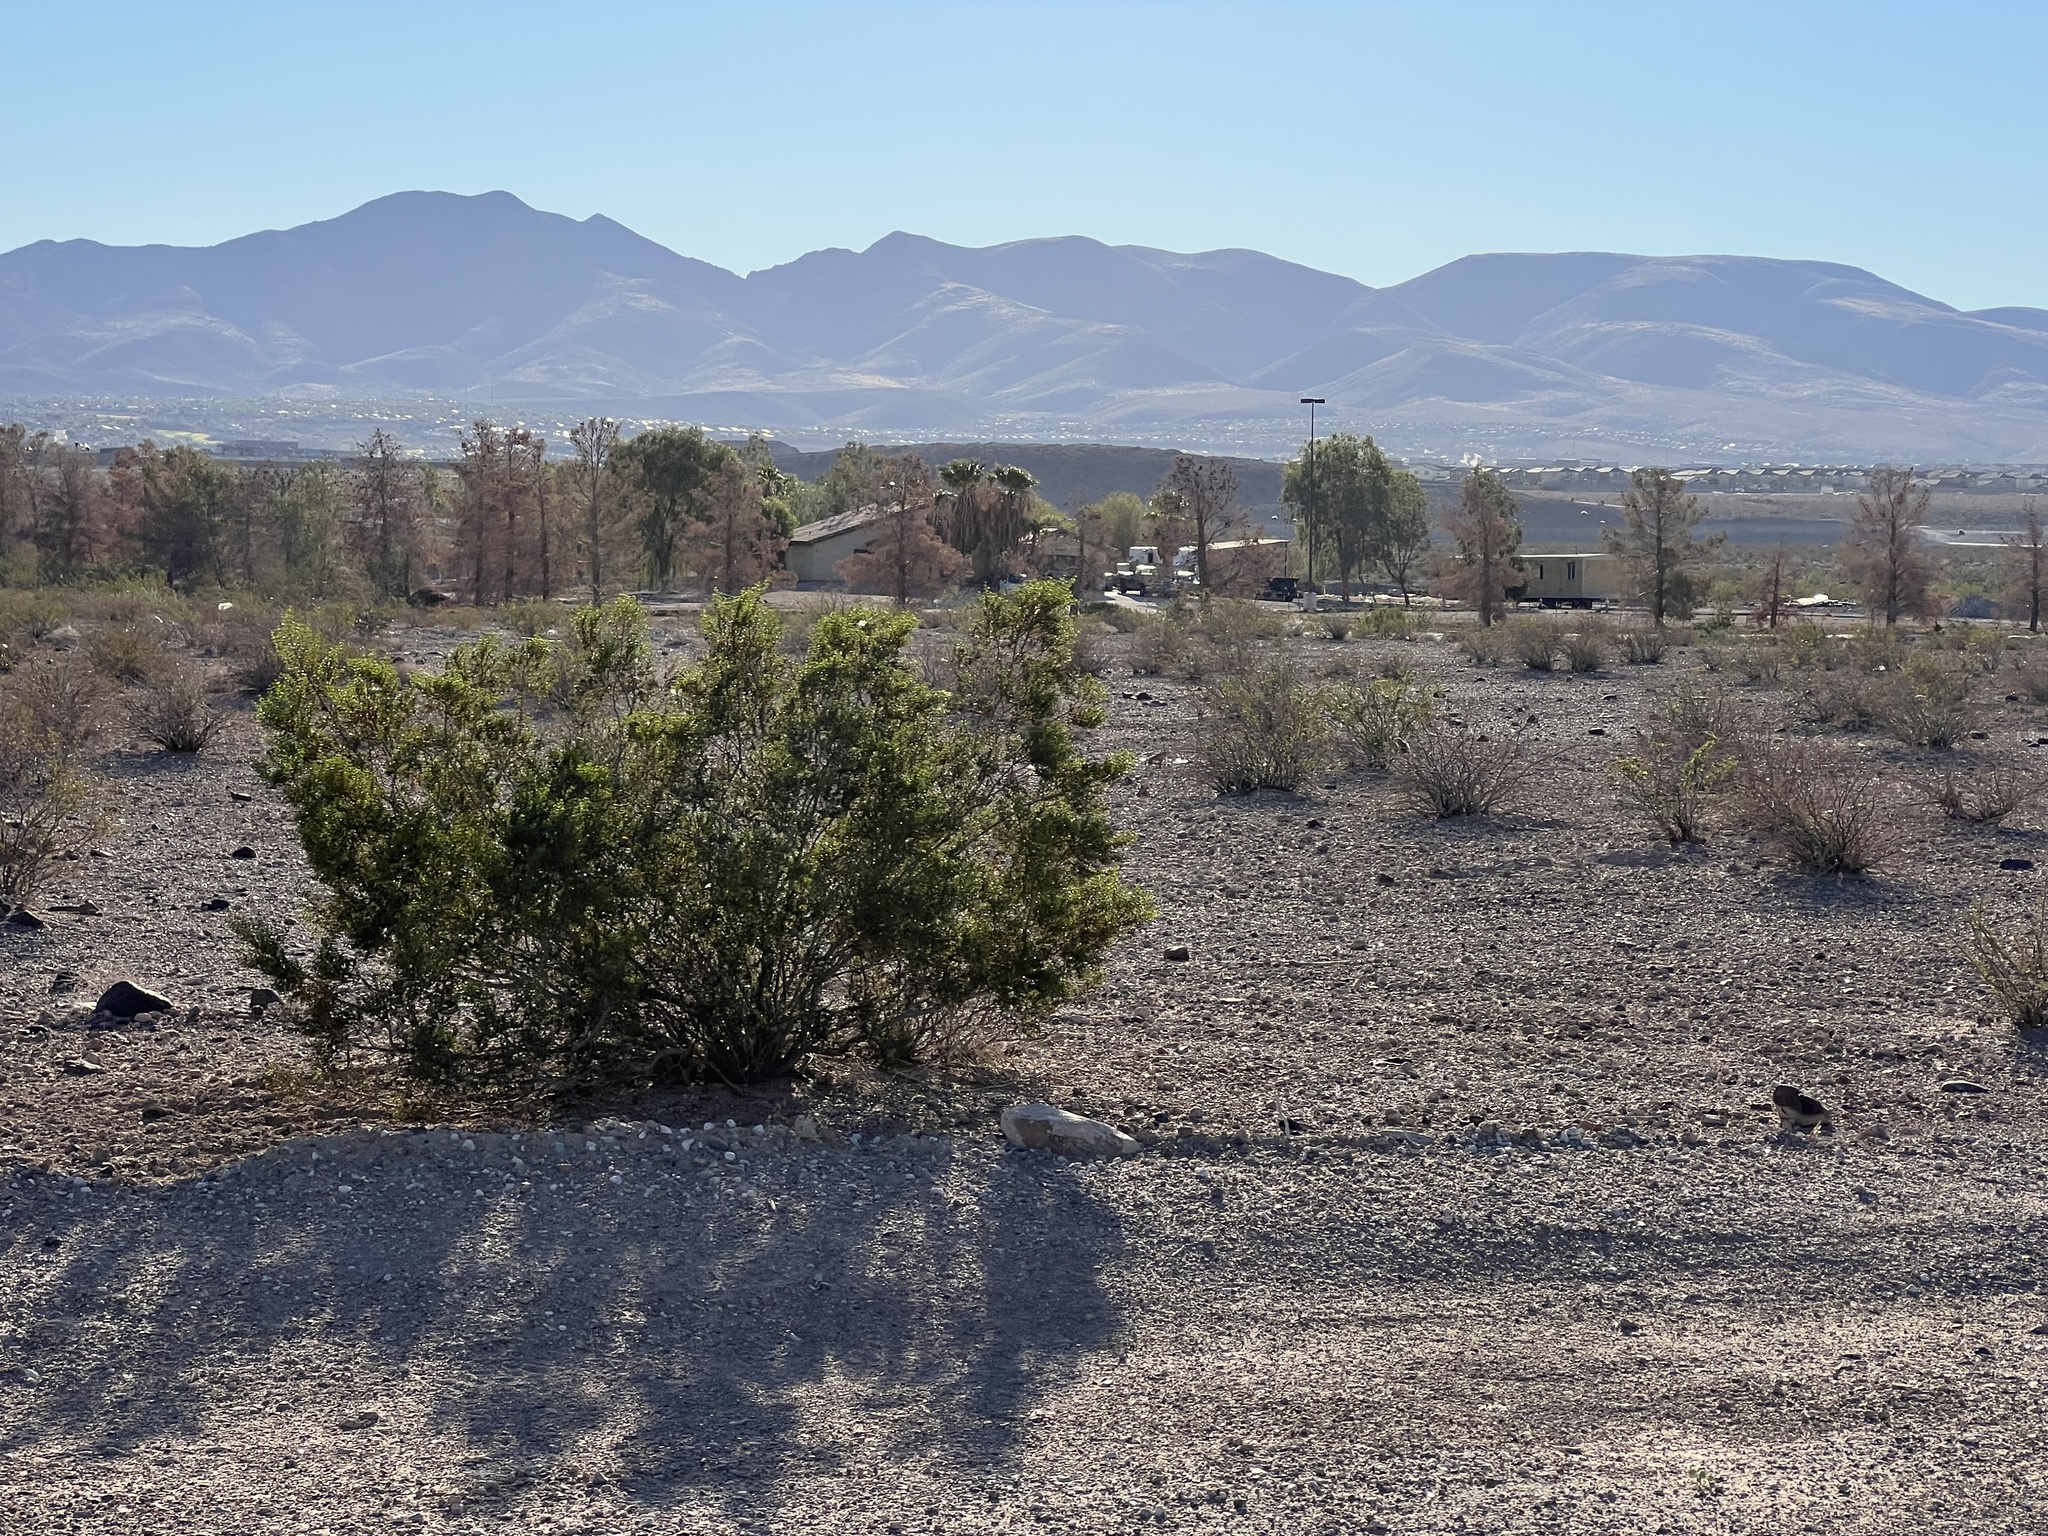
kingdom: Plantae
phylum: Tracheophyta
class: Magnoliopsida
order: Zygophyllales
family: Zygophyllaceae
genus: Larrea
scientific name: Larrea tridentata
